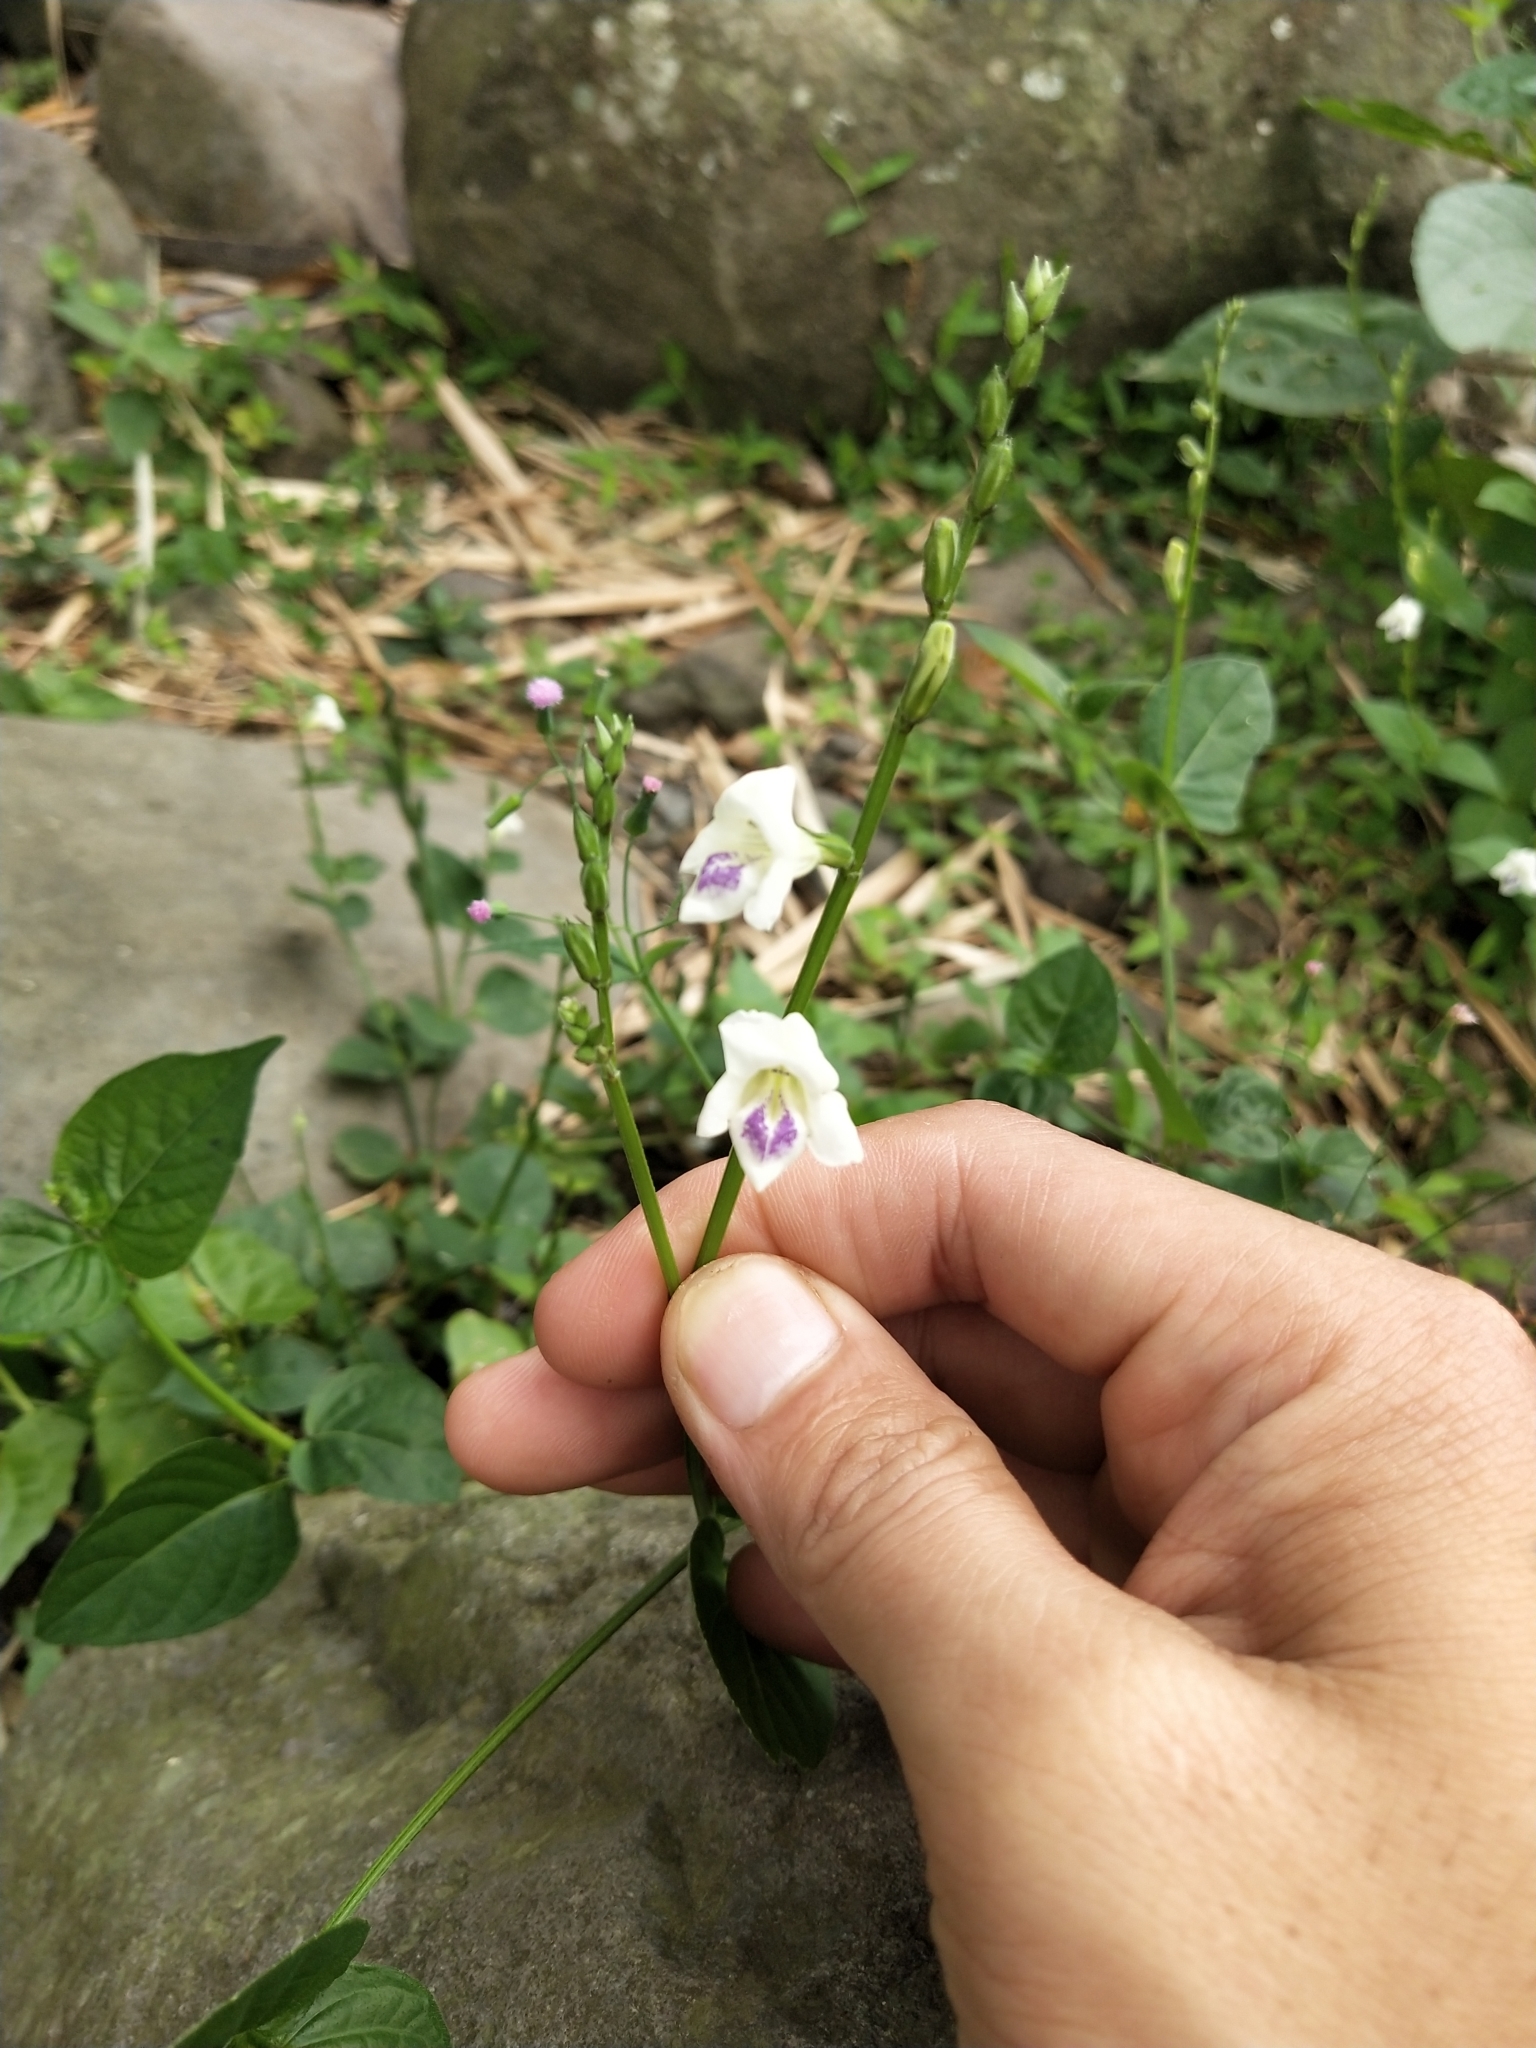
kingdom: Plantae
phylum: Tracheophyta
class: Magnoliopsida
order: Lamiales
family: Acanthaceae
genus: Asystasia
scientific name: Asystasia intrusa
